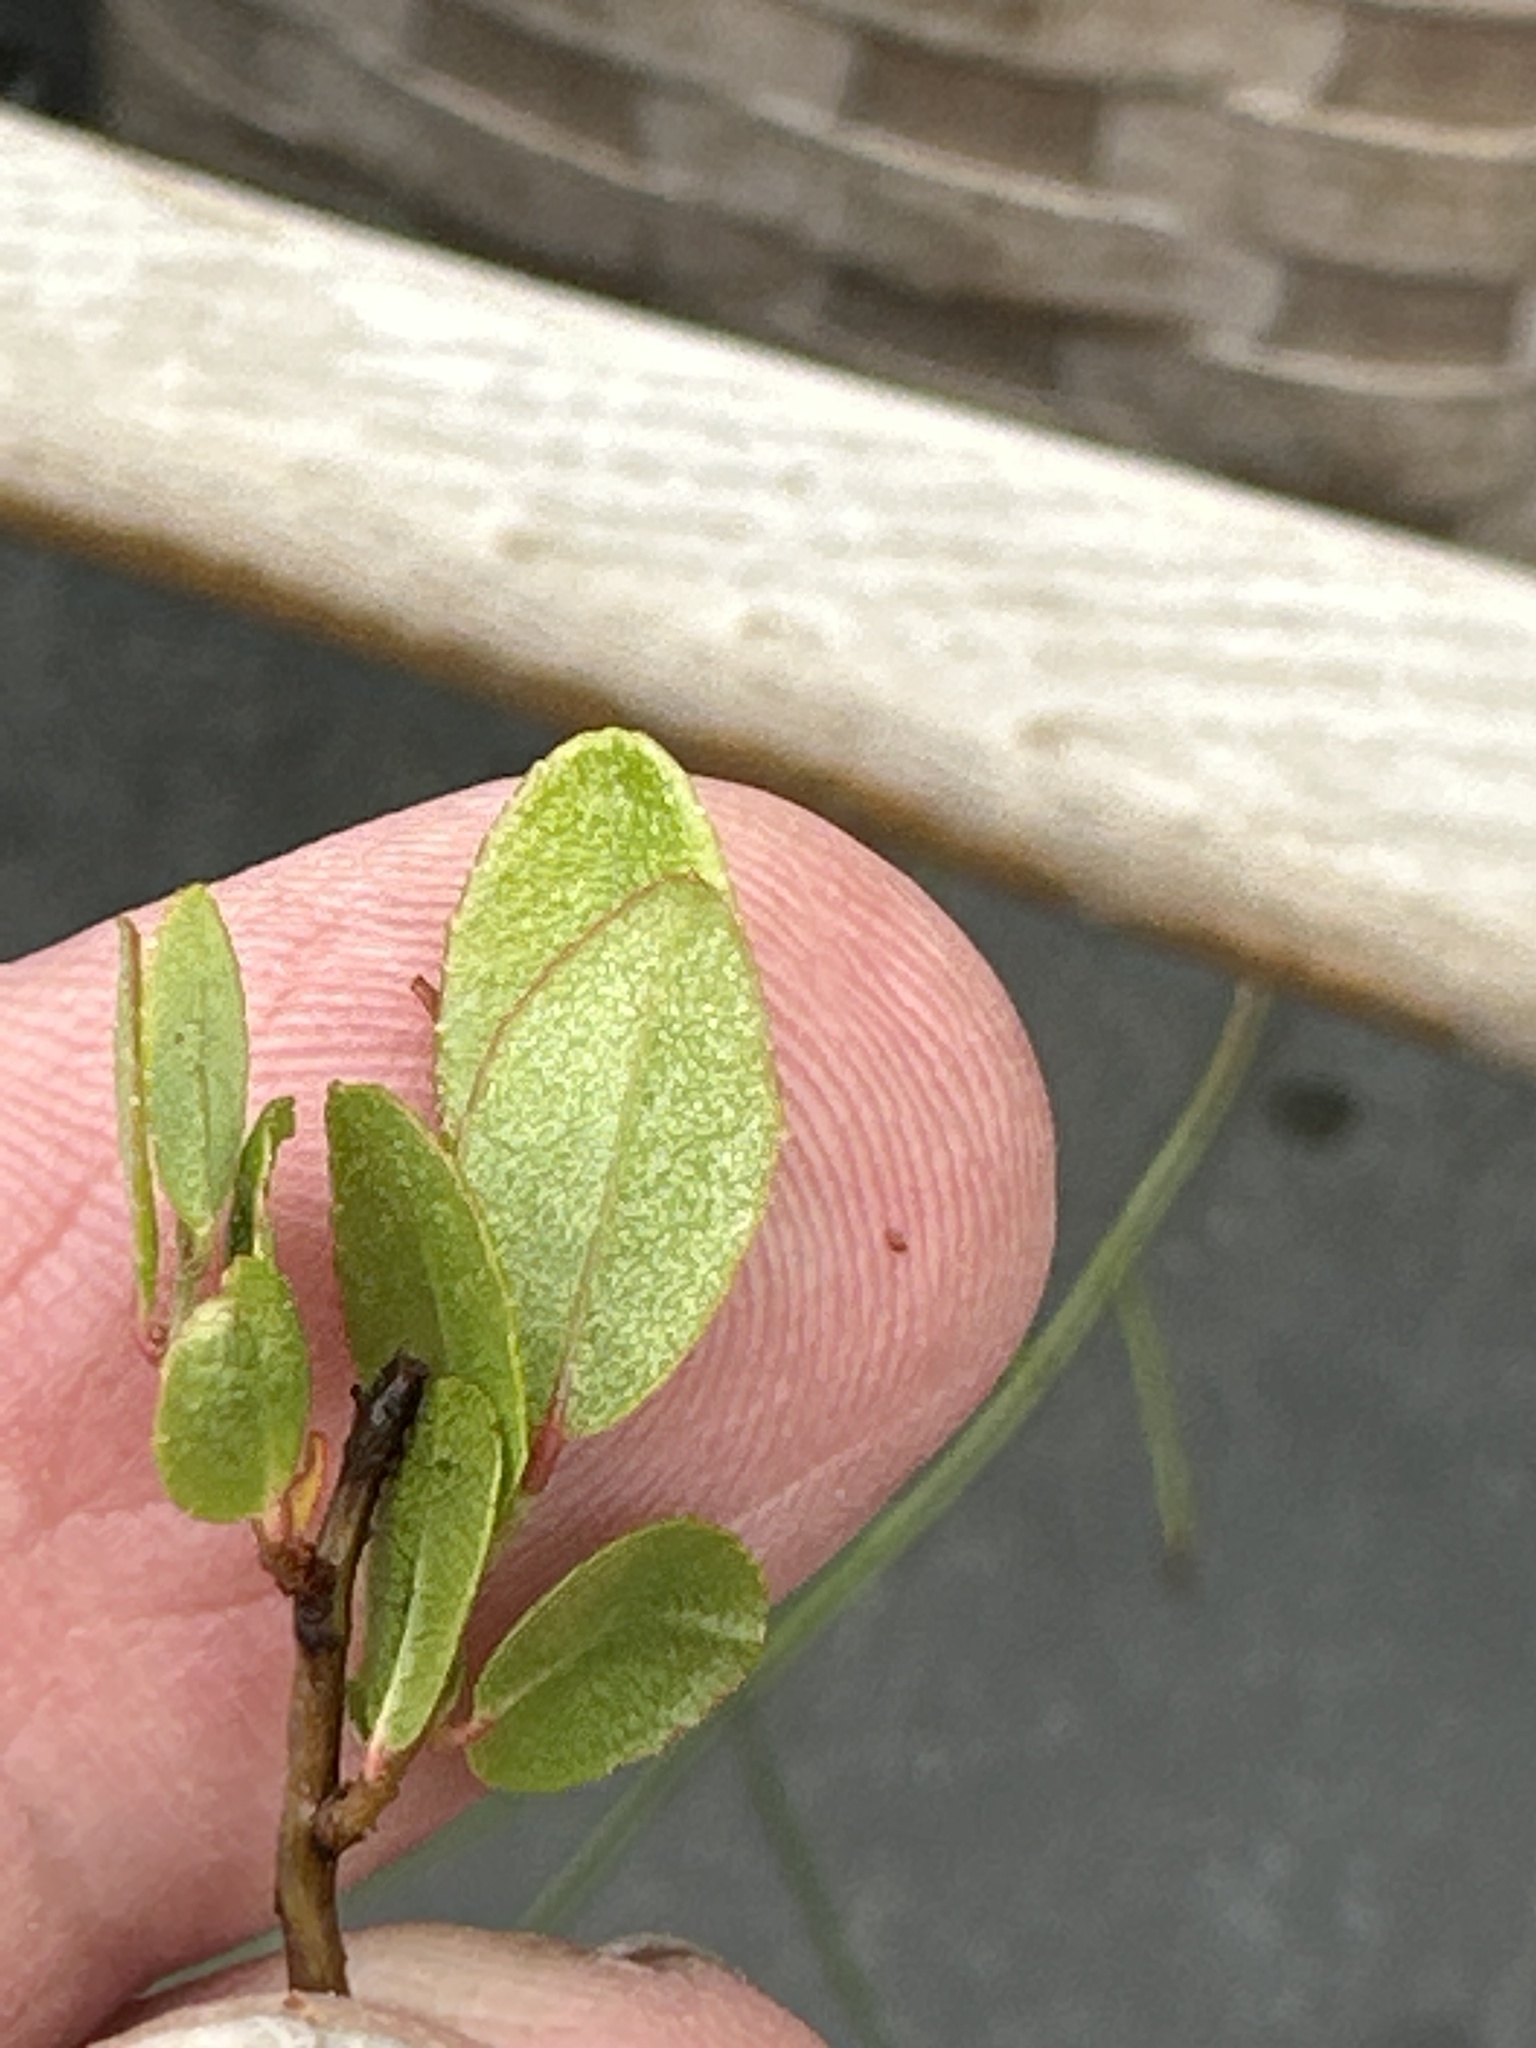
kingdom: Plantae
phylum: Tracheophyta
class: Magnoliopsida
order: Ericales
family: Ericaceae
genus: Chamaedaphne
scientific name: Chamaedaphne calyculata
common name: Leatherleaf
